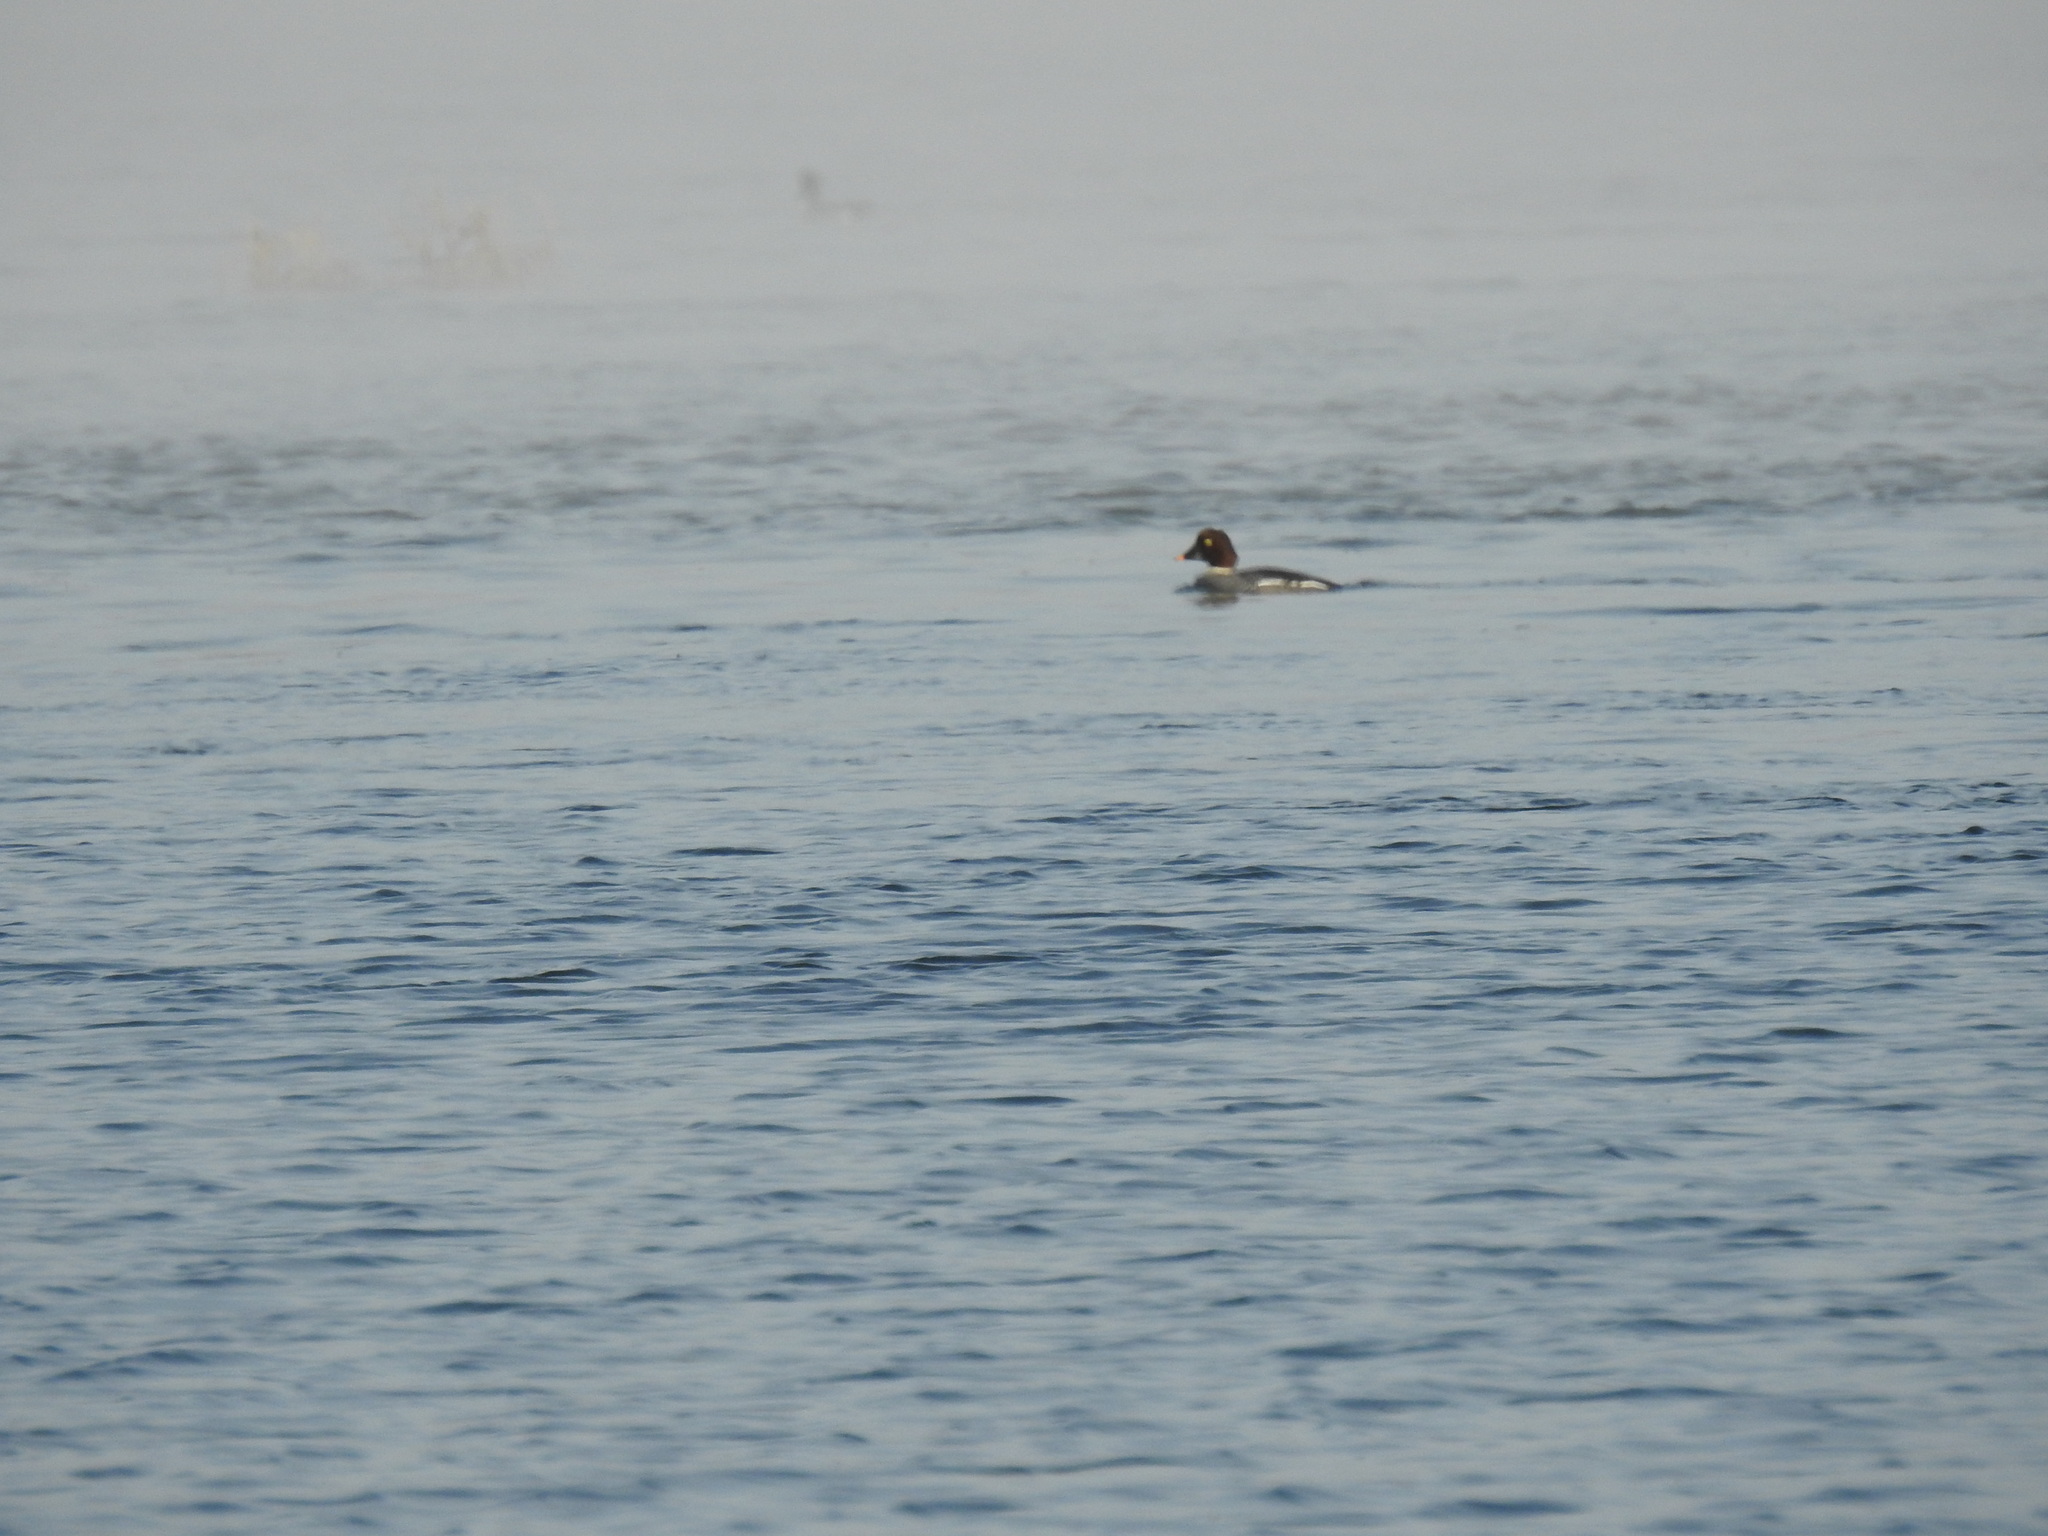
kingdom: Animalia
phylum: Chordata
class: Aves
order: Anseriformes
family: Anatidae
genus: Bucephala
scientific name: Bucephala clangula
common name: Common goldeneye
